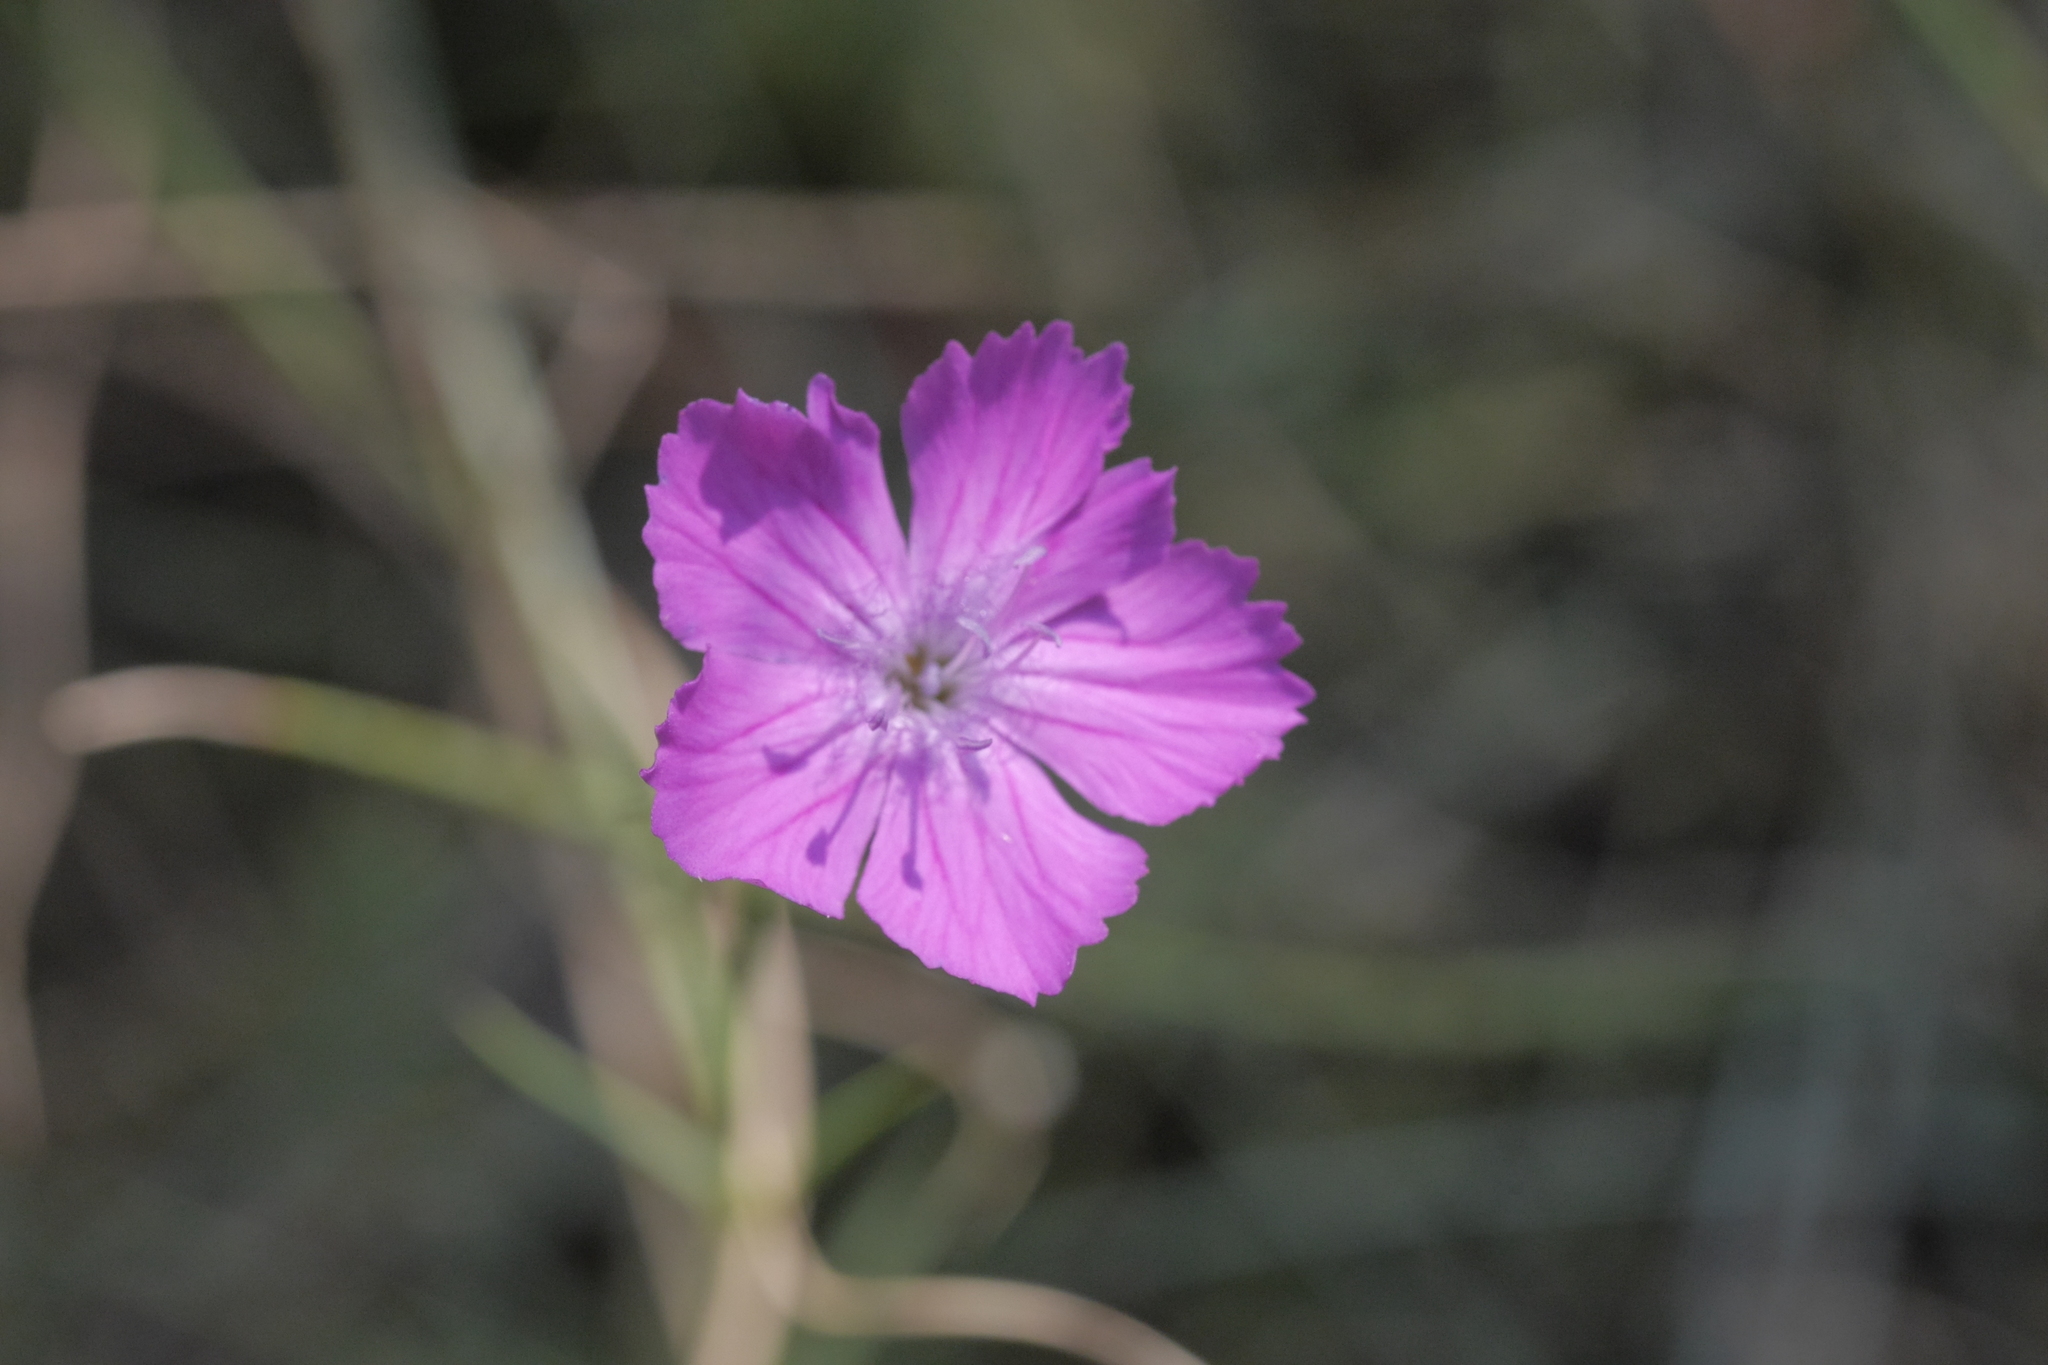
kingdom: Plantae
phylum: Tracheophyta
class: Magnoliopsida
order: Caryophyllales
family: Caryophyllaceae
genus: Dianthus
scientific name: Dianthus graniticus
